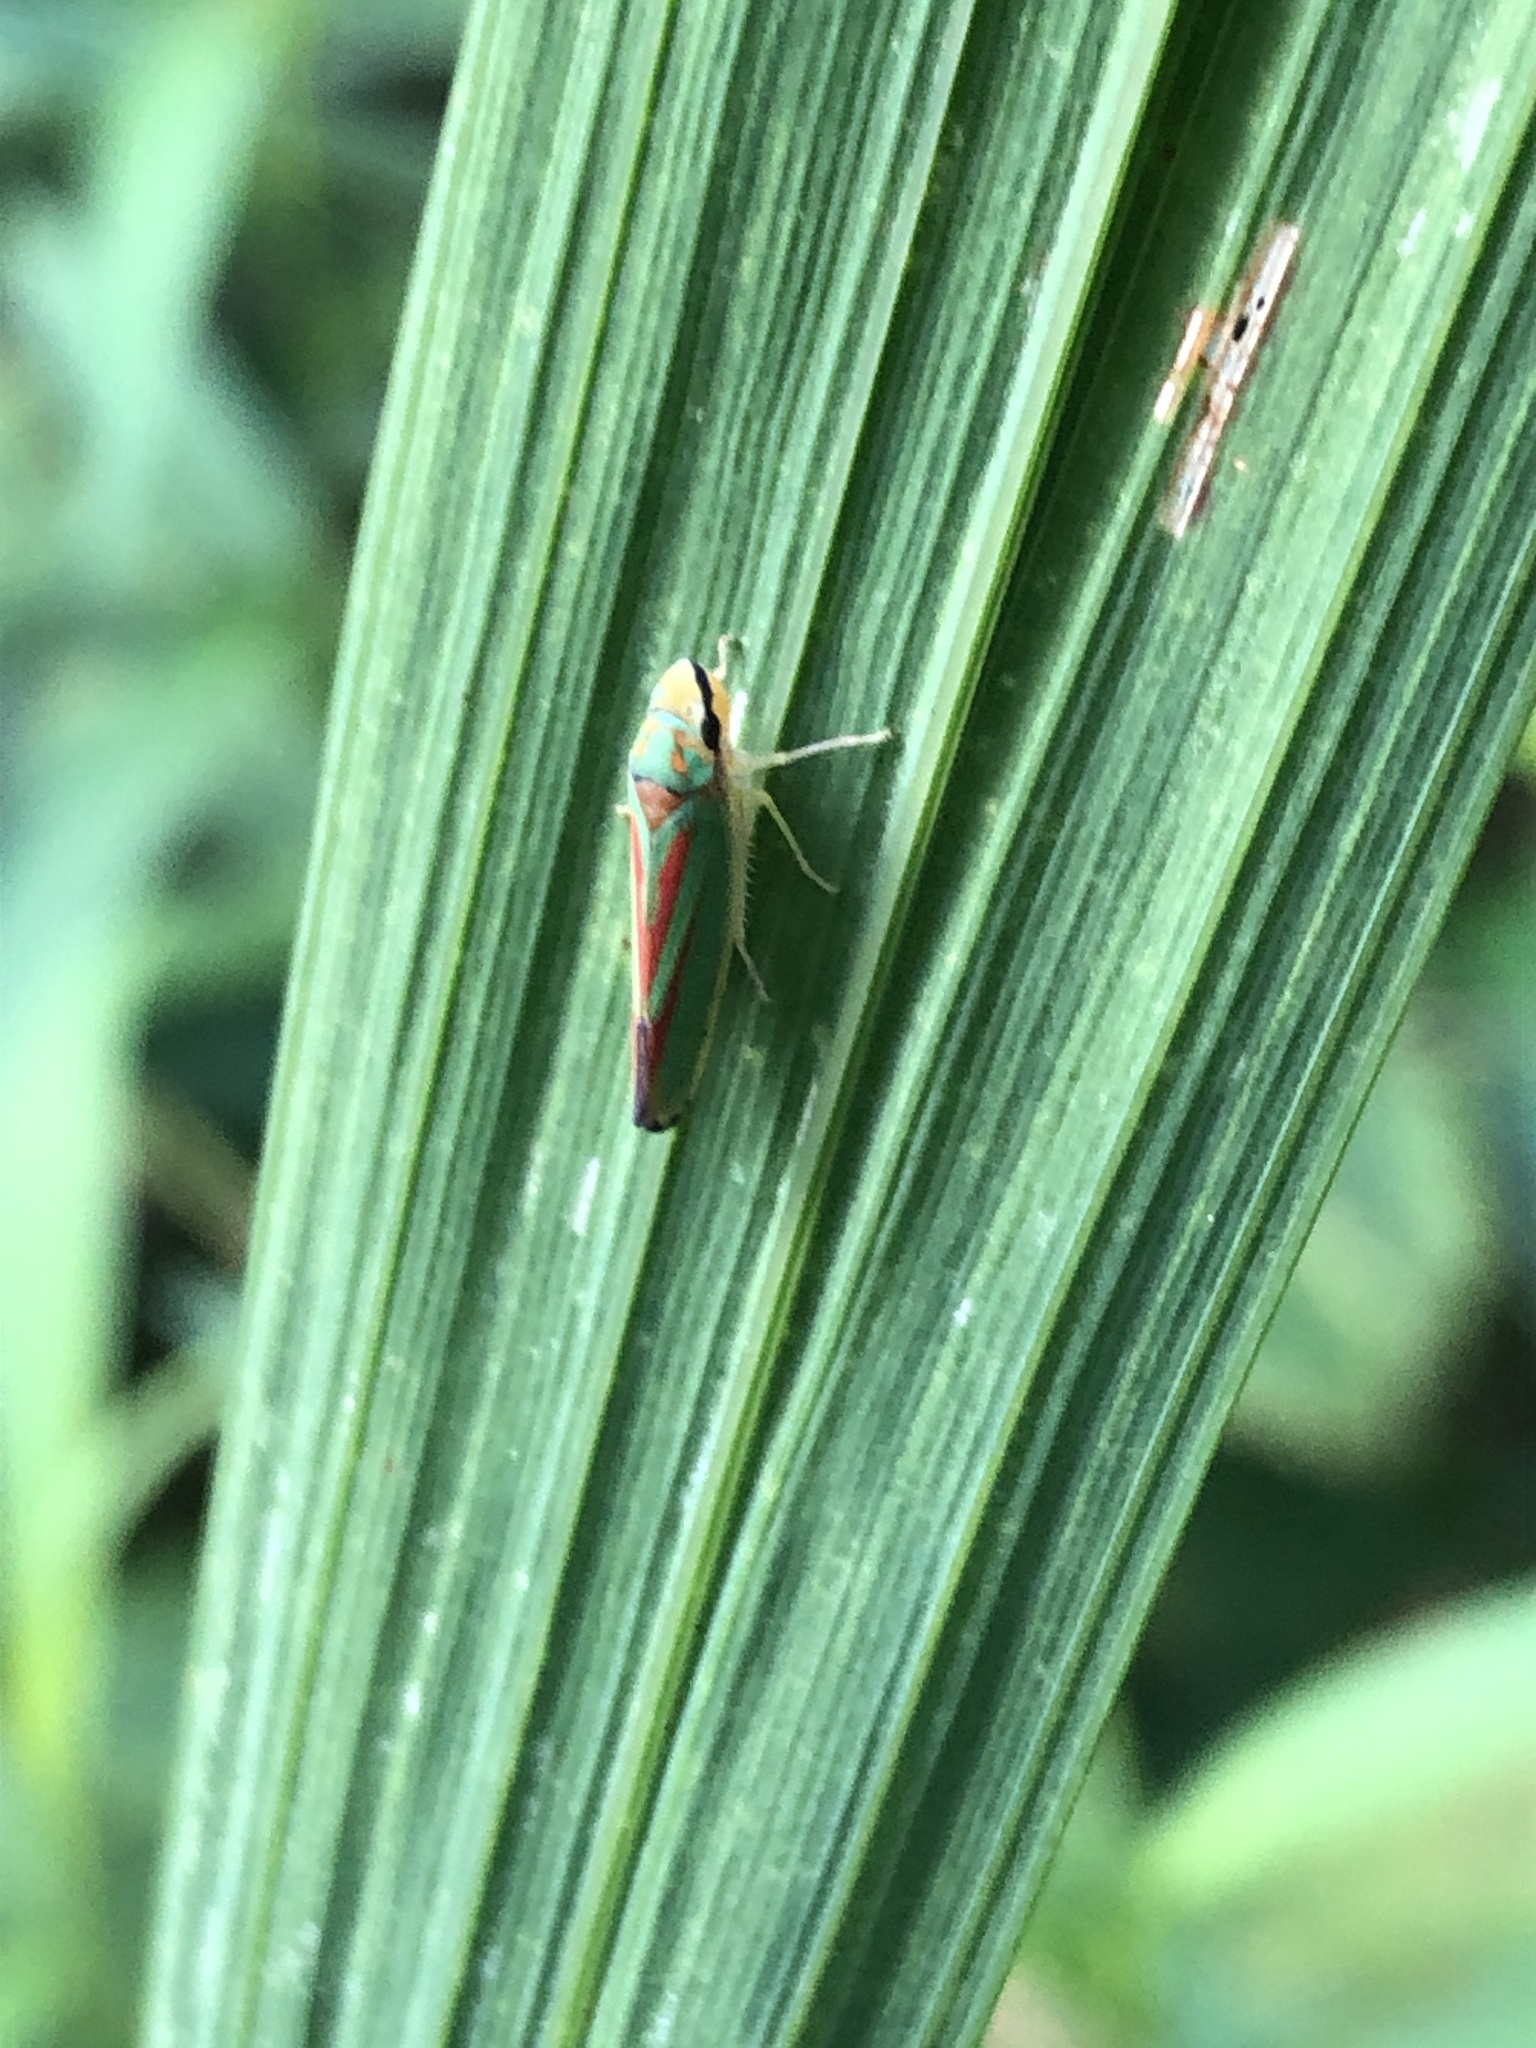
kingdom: Animalia
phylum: Arthropoda
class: Insecta
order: Hemiptera
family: Cicadellidae
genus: Graphocephala
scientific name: Graphocephala fennahi
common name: Rhododendron leafhopper
